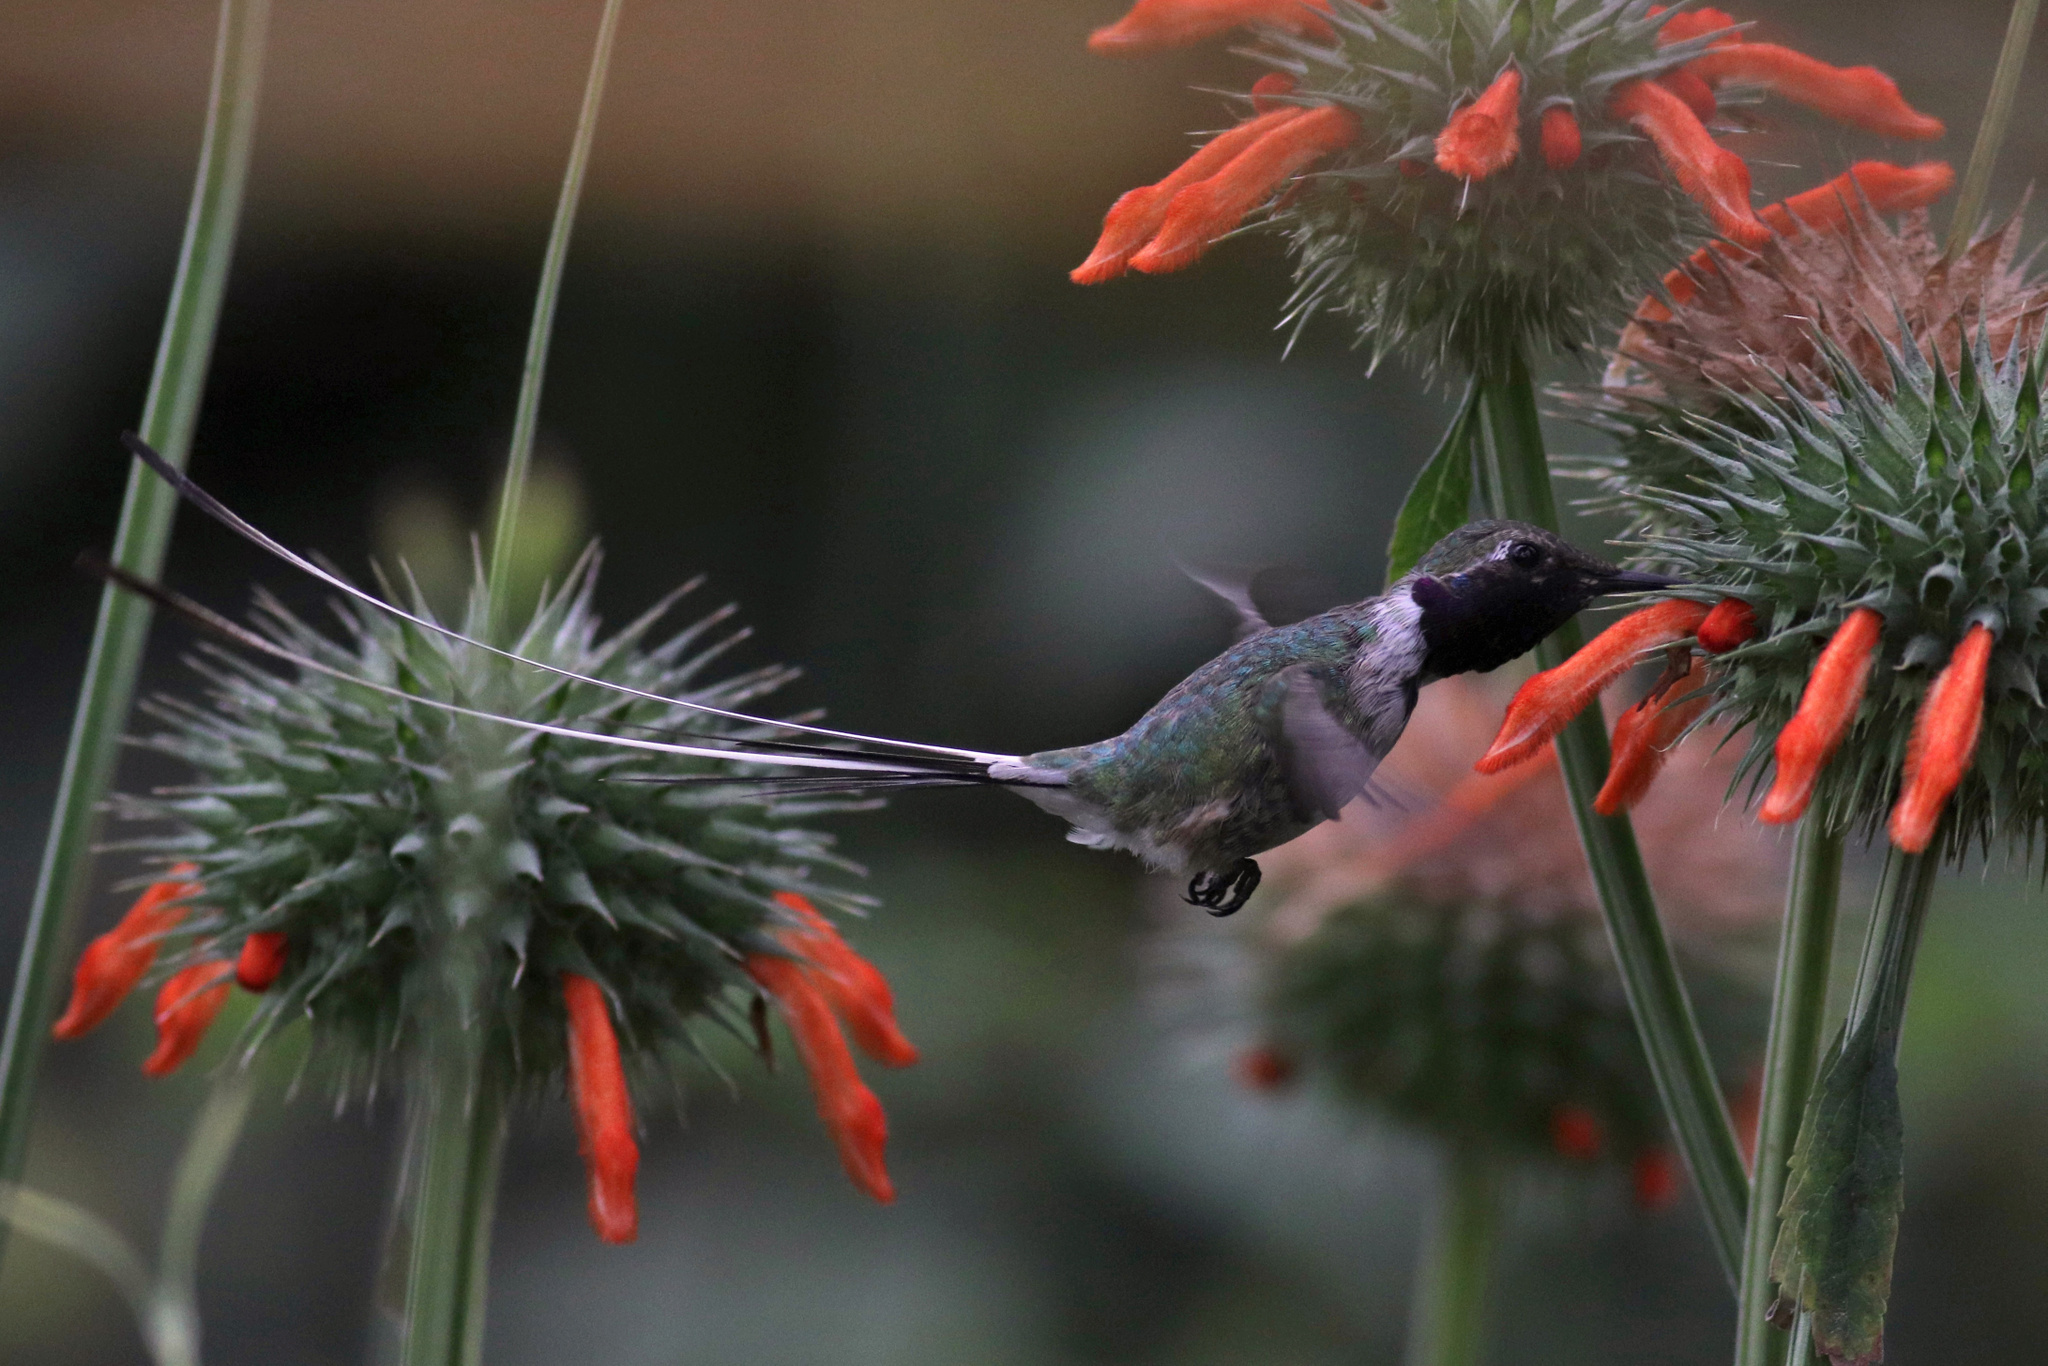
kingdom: Animalia
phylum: Chordata
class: Aves
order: Apodiformes
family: Trochilidae
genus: Thaumastura
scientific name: Thaumastura cora
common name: Peruvian sheartail
